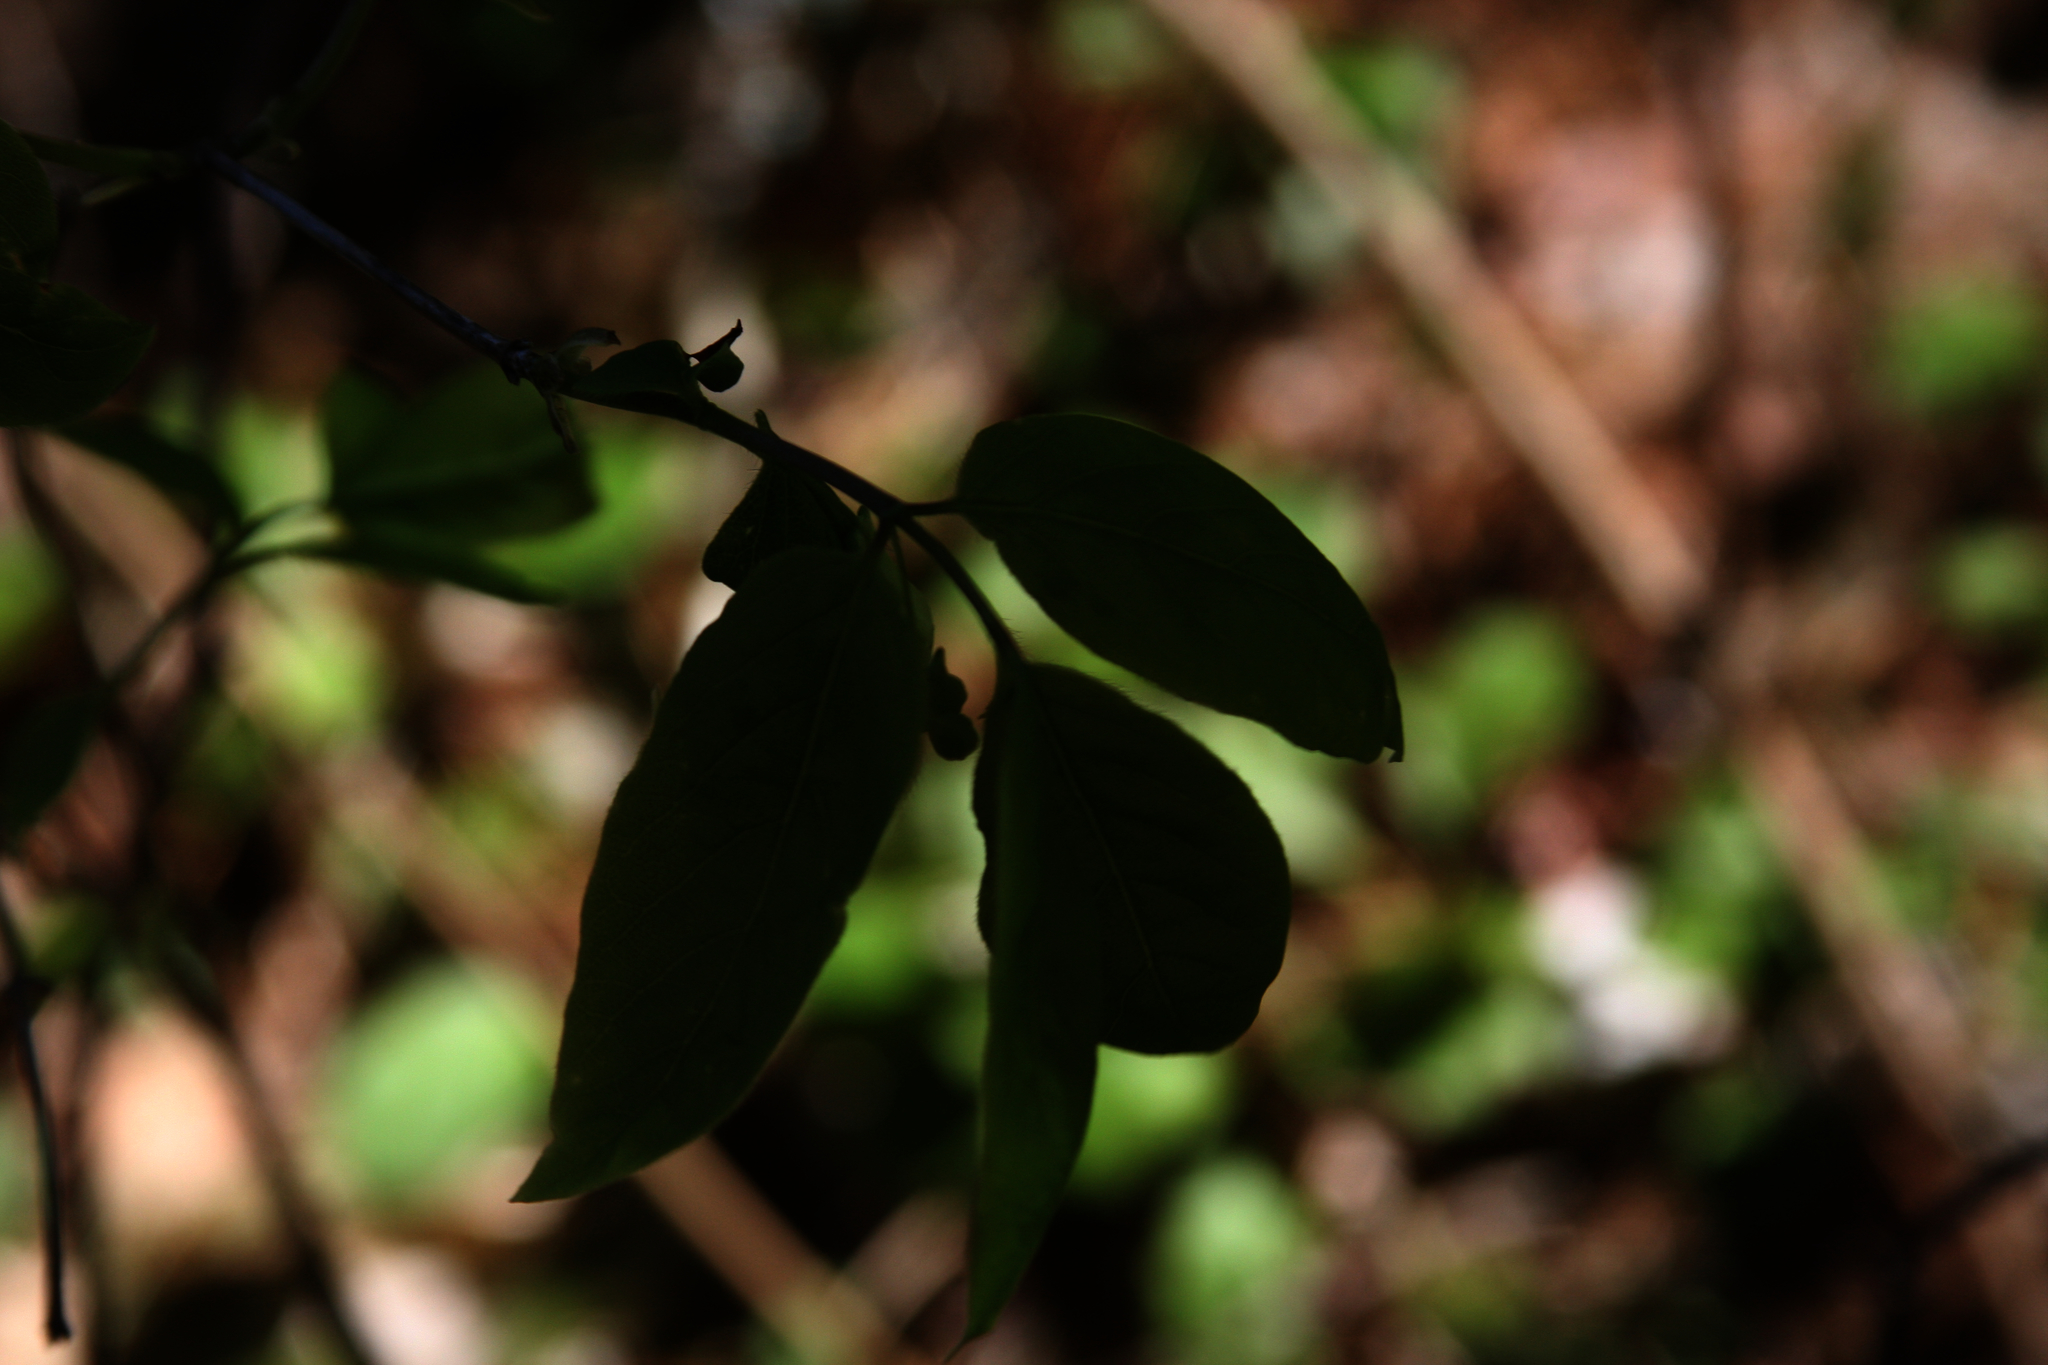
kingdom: Plantae
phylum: Tracheophyta
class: Magnoliopsida
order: Dipsacales
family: Caprifoliaceae
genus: Lonicera
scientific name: Lonicera canadensis
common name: American fly-honeysuckle
